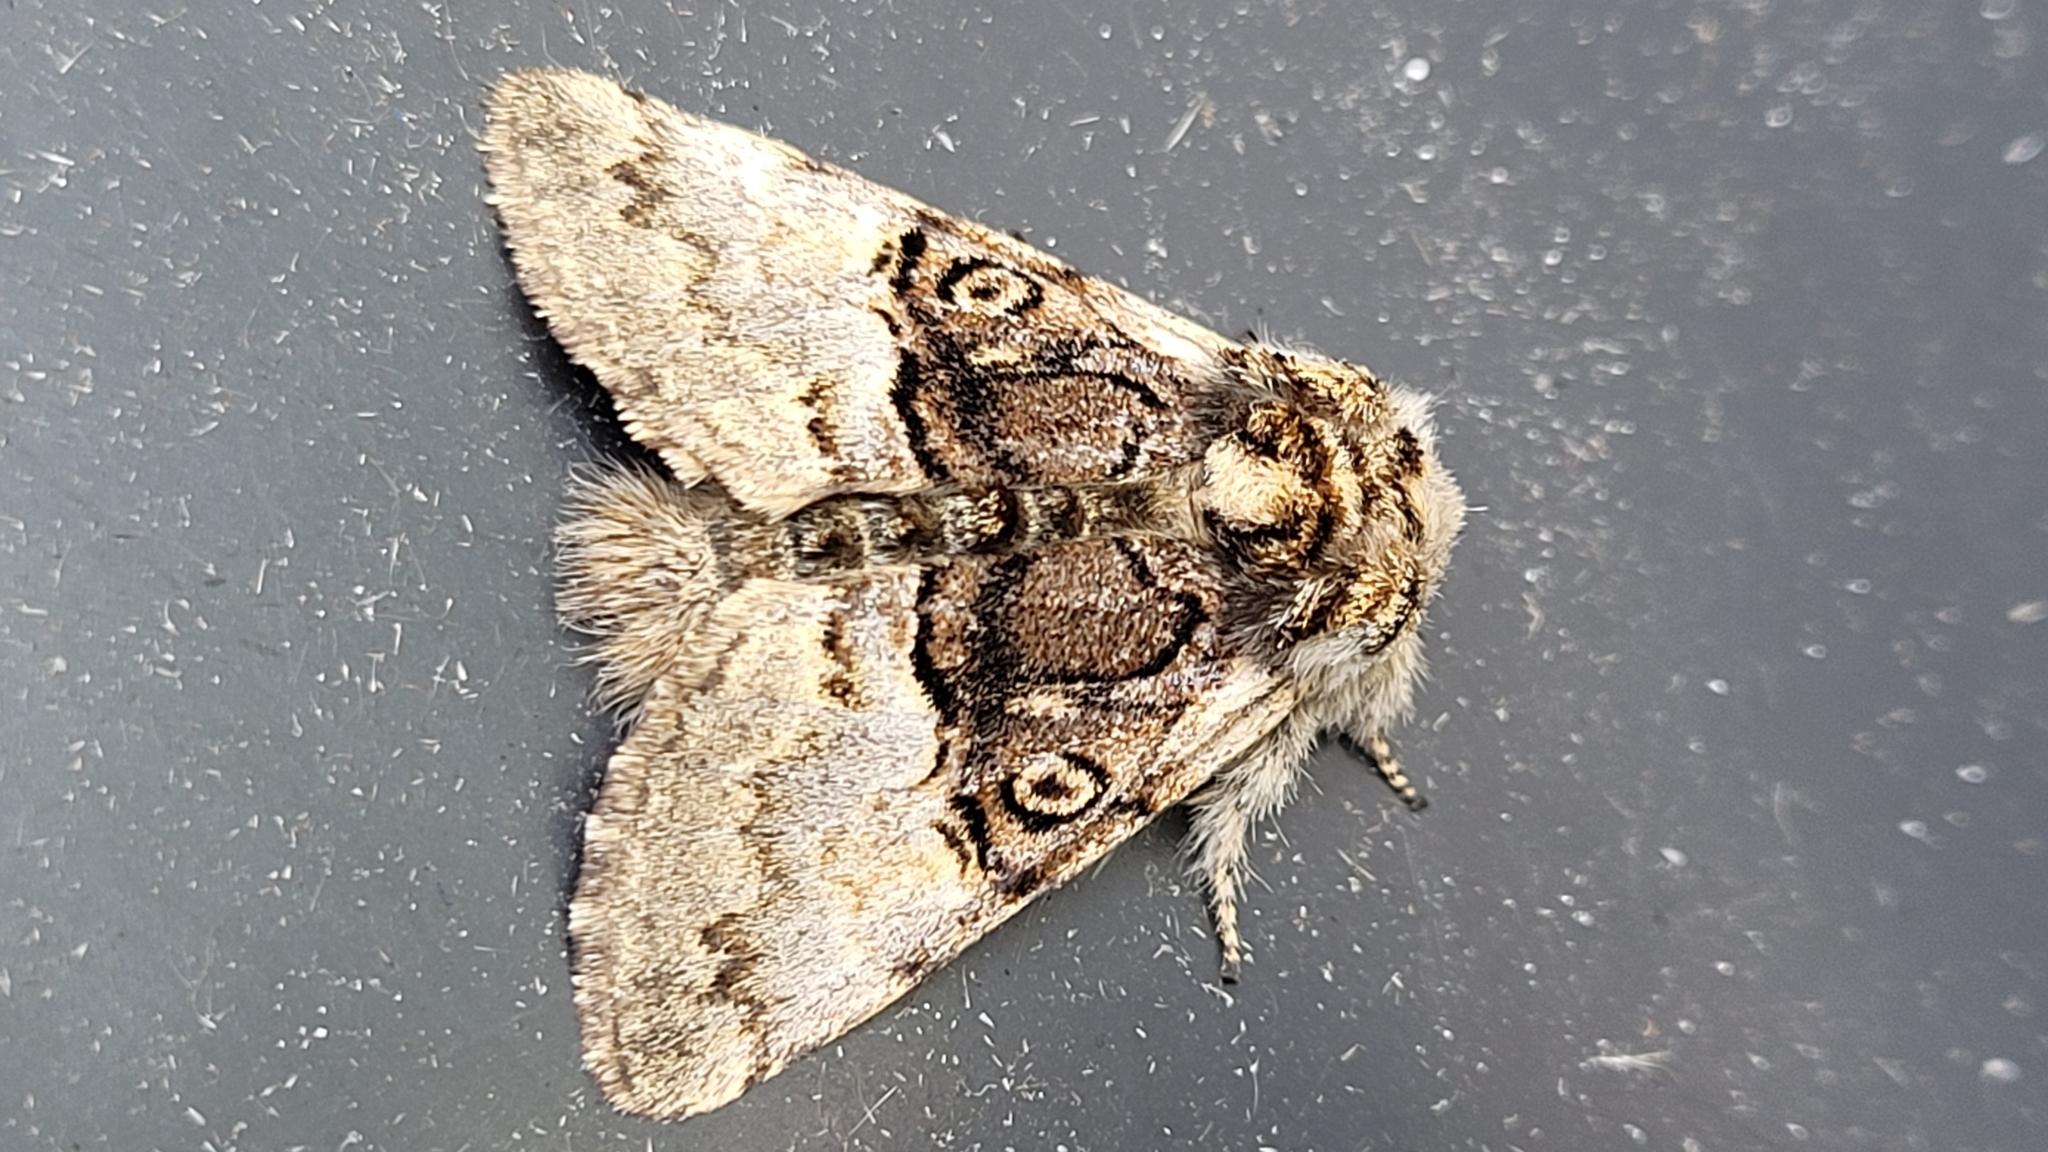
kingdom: Animalia
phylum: Arthropoda
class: Insecta
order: Lepidoptera
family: Noctuidae
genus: Colocasia
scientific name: Colocasia coryli
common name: Nut-tree tussock
